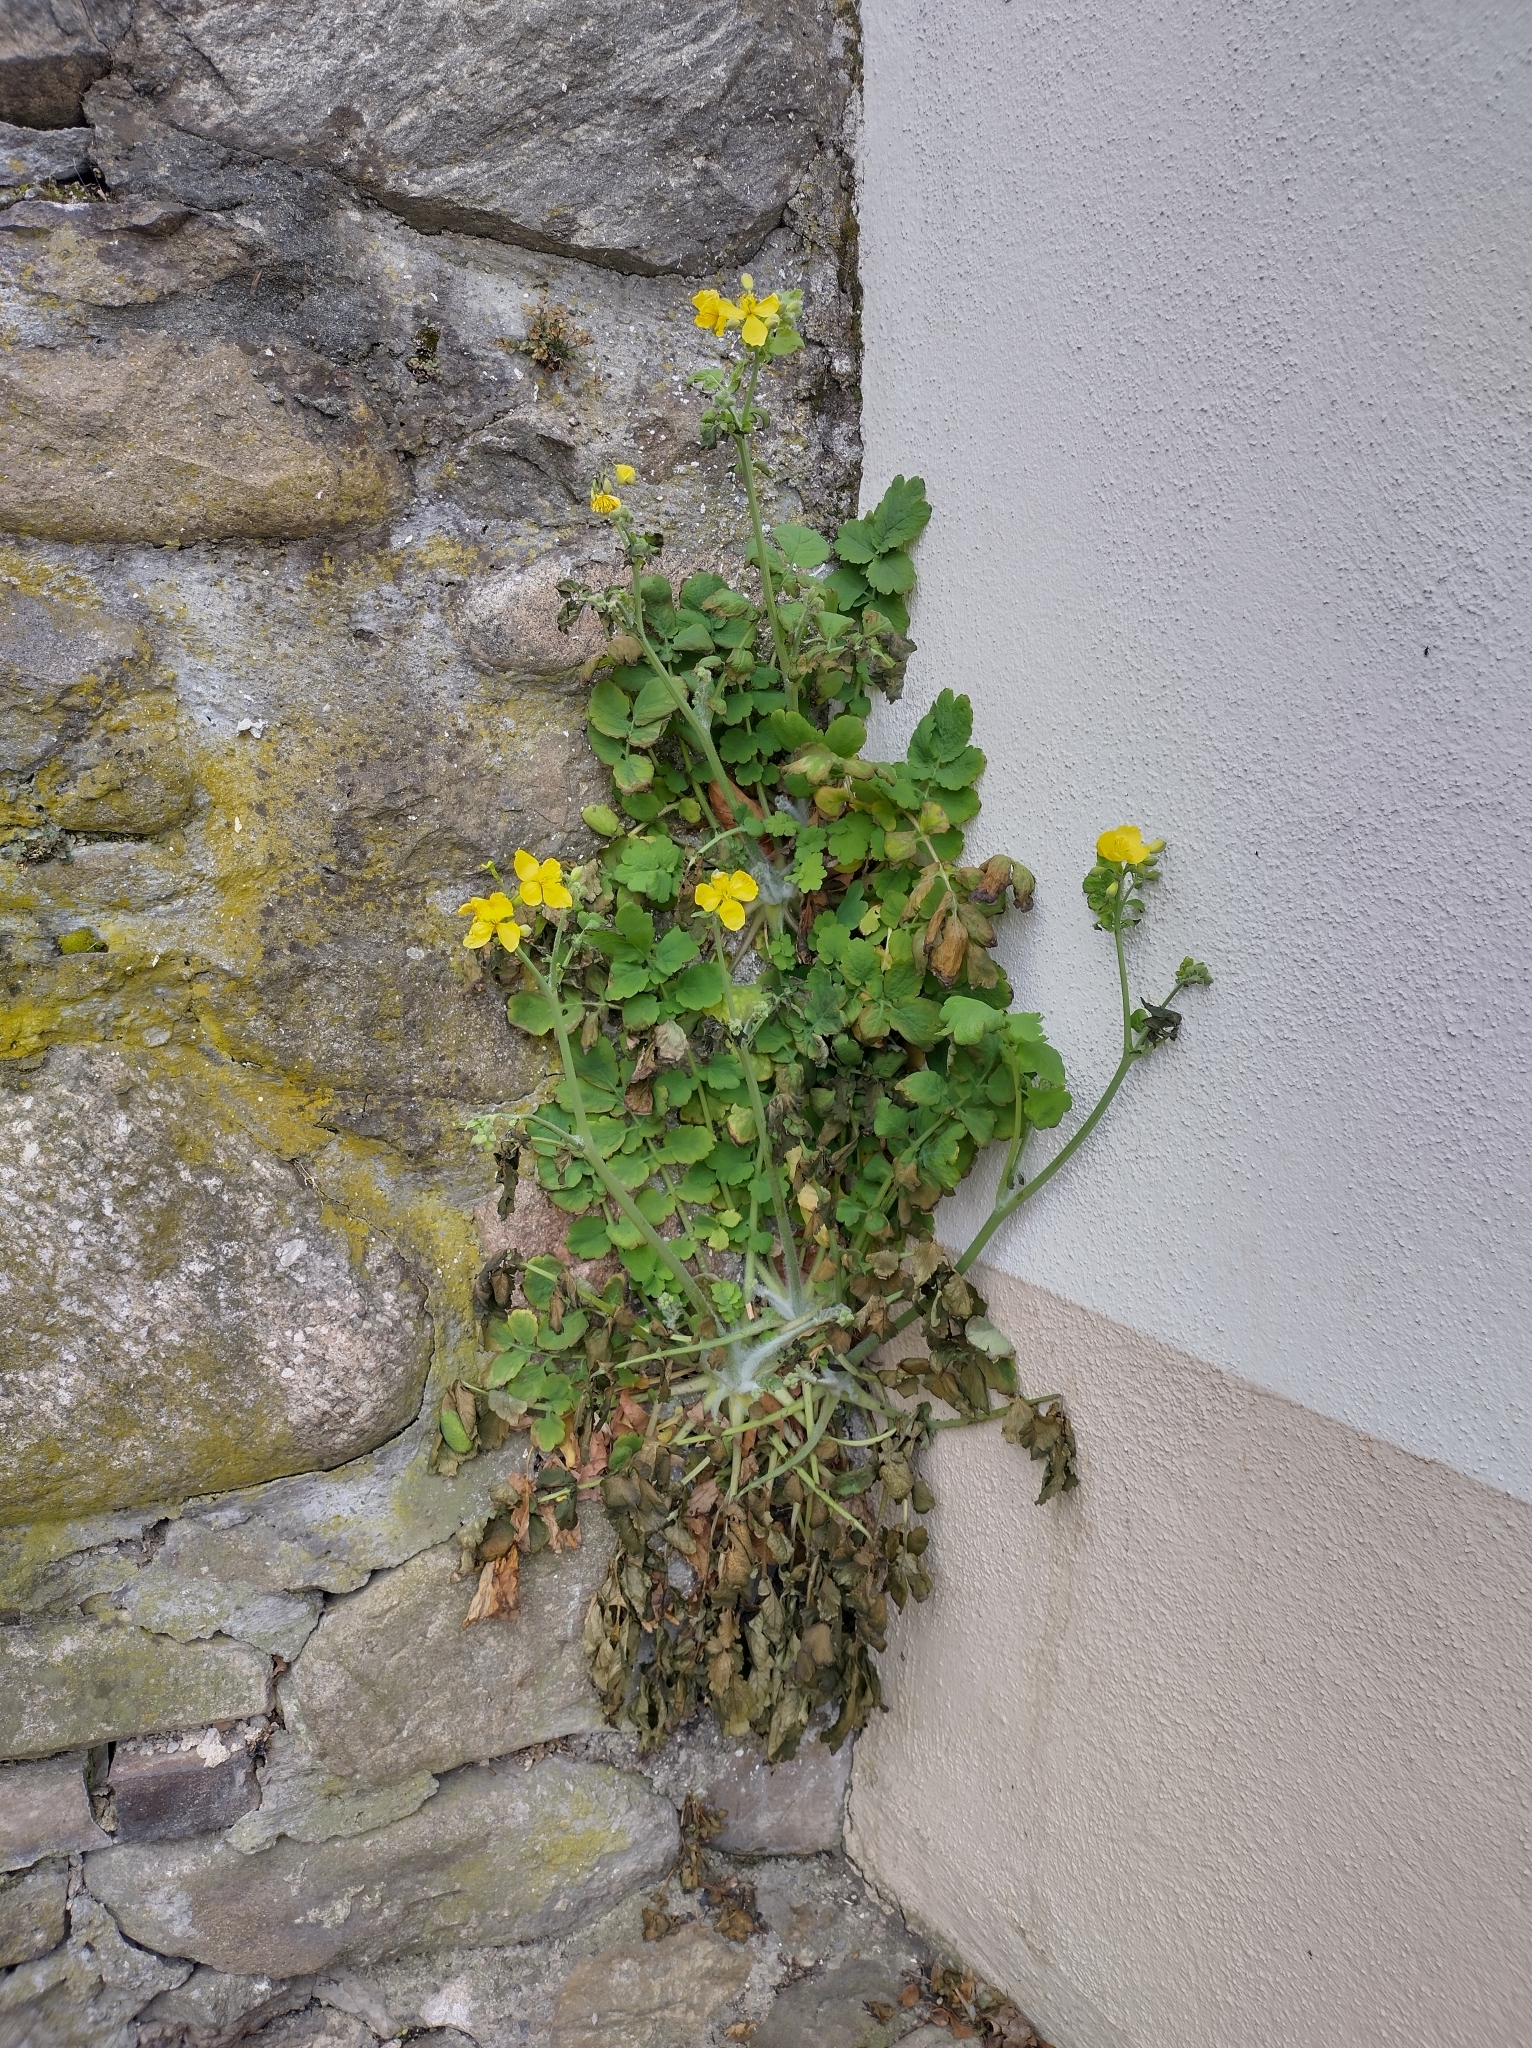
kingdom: Plantae
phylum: Tracheophyta
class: Magnoliopsida
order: Ranunculales
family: Papaveraceae
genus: Chelidonium
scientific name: Chelidonium majus
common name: Greater celandine
